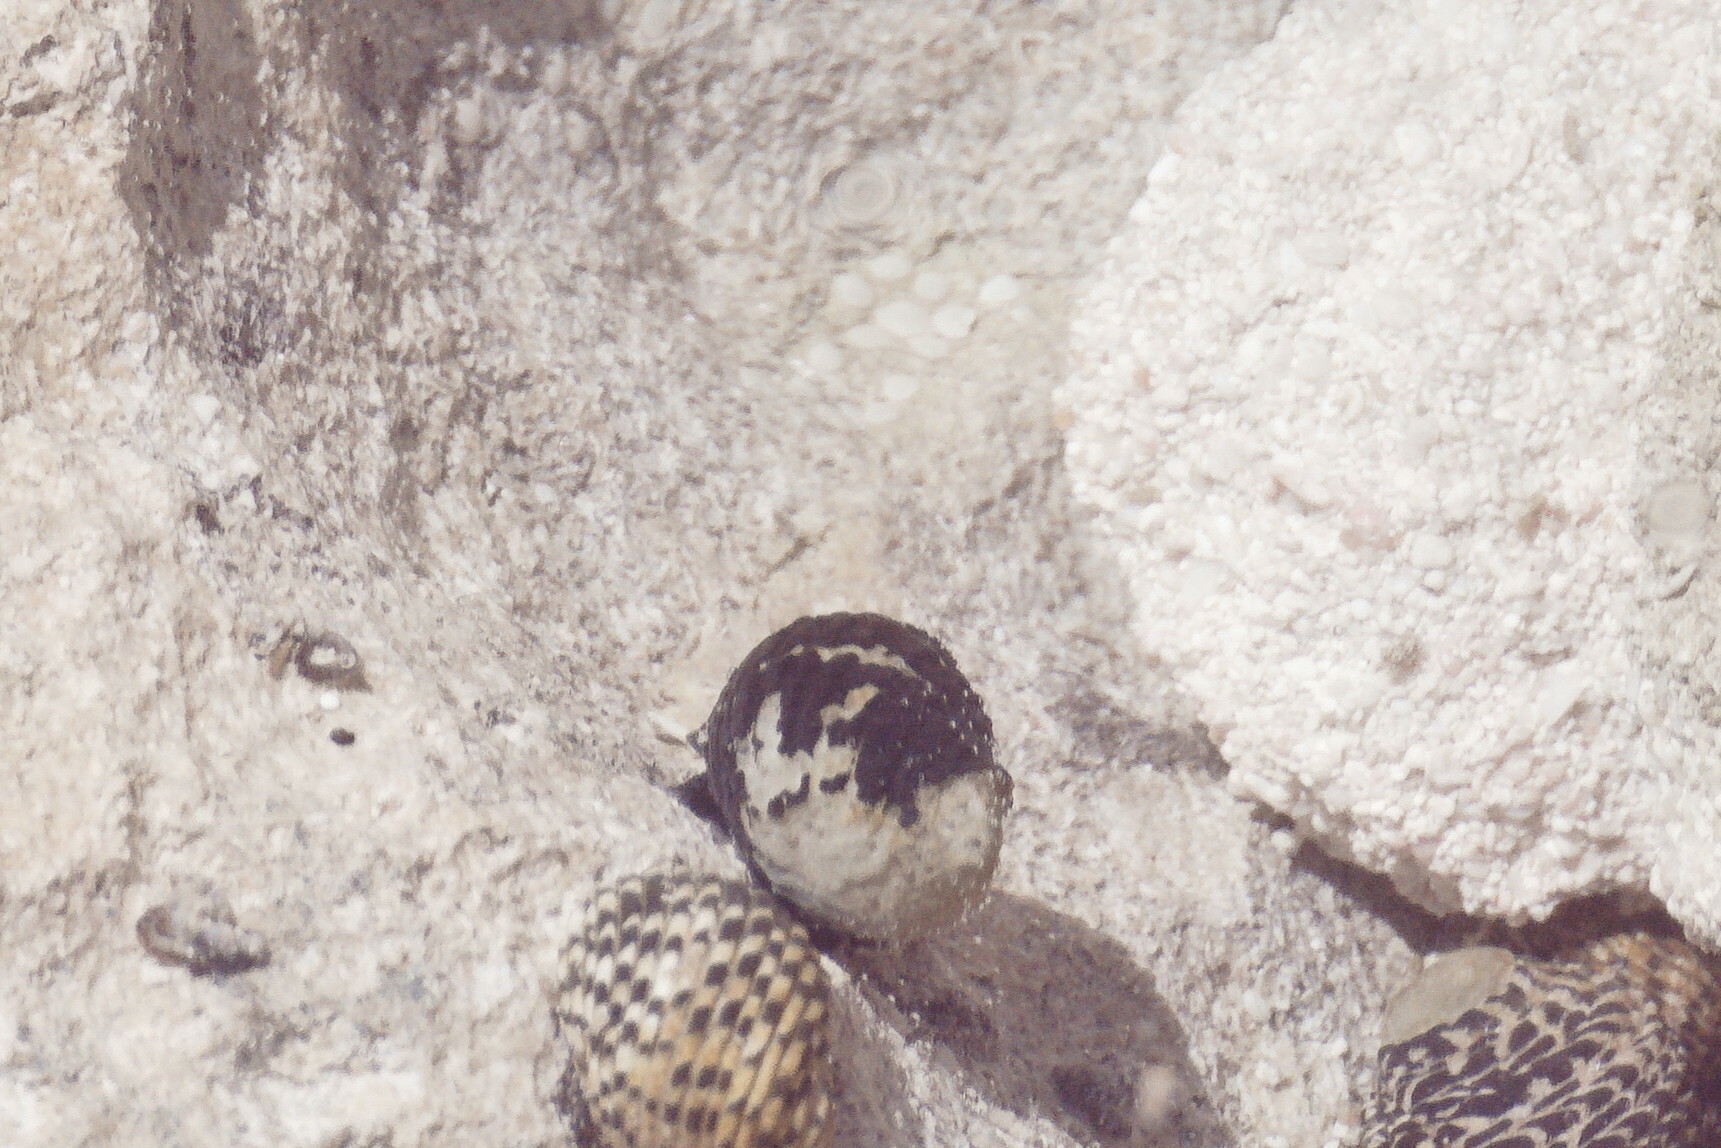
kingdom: Animalia
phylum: Mollusca
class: Gastropoda
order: Cycloneritida
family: Neritidae
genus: Nerita
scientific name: Nerita tessellata
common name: Checkered nerite
